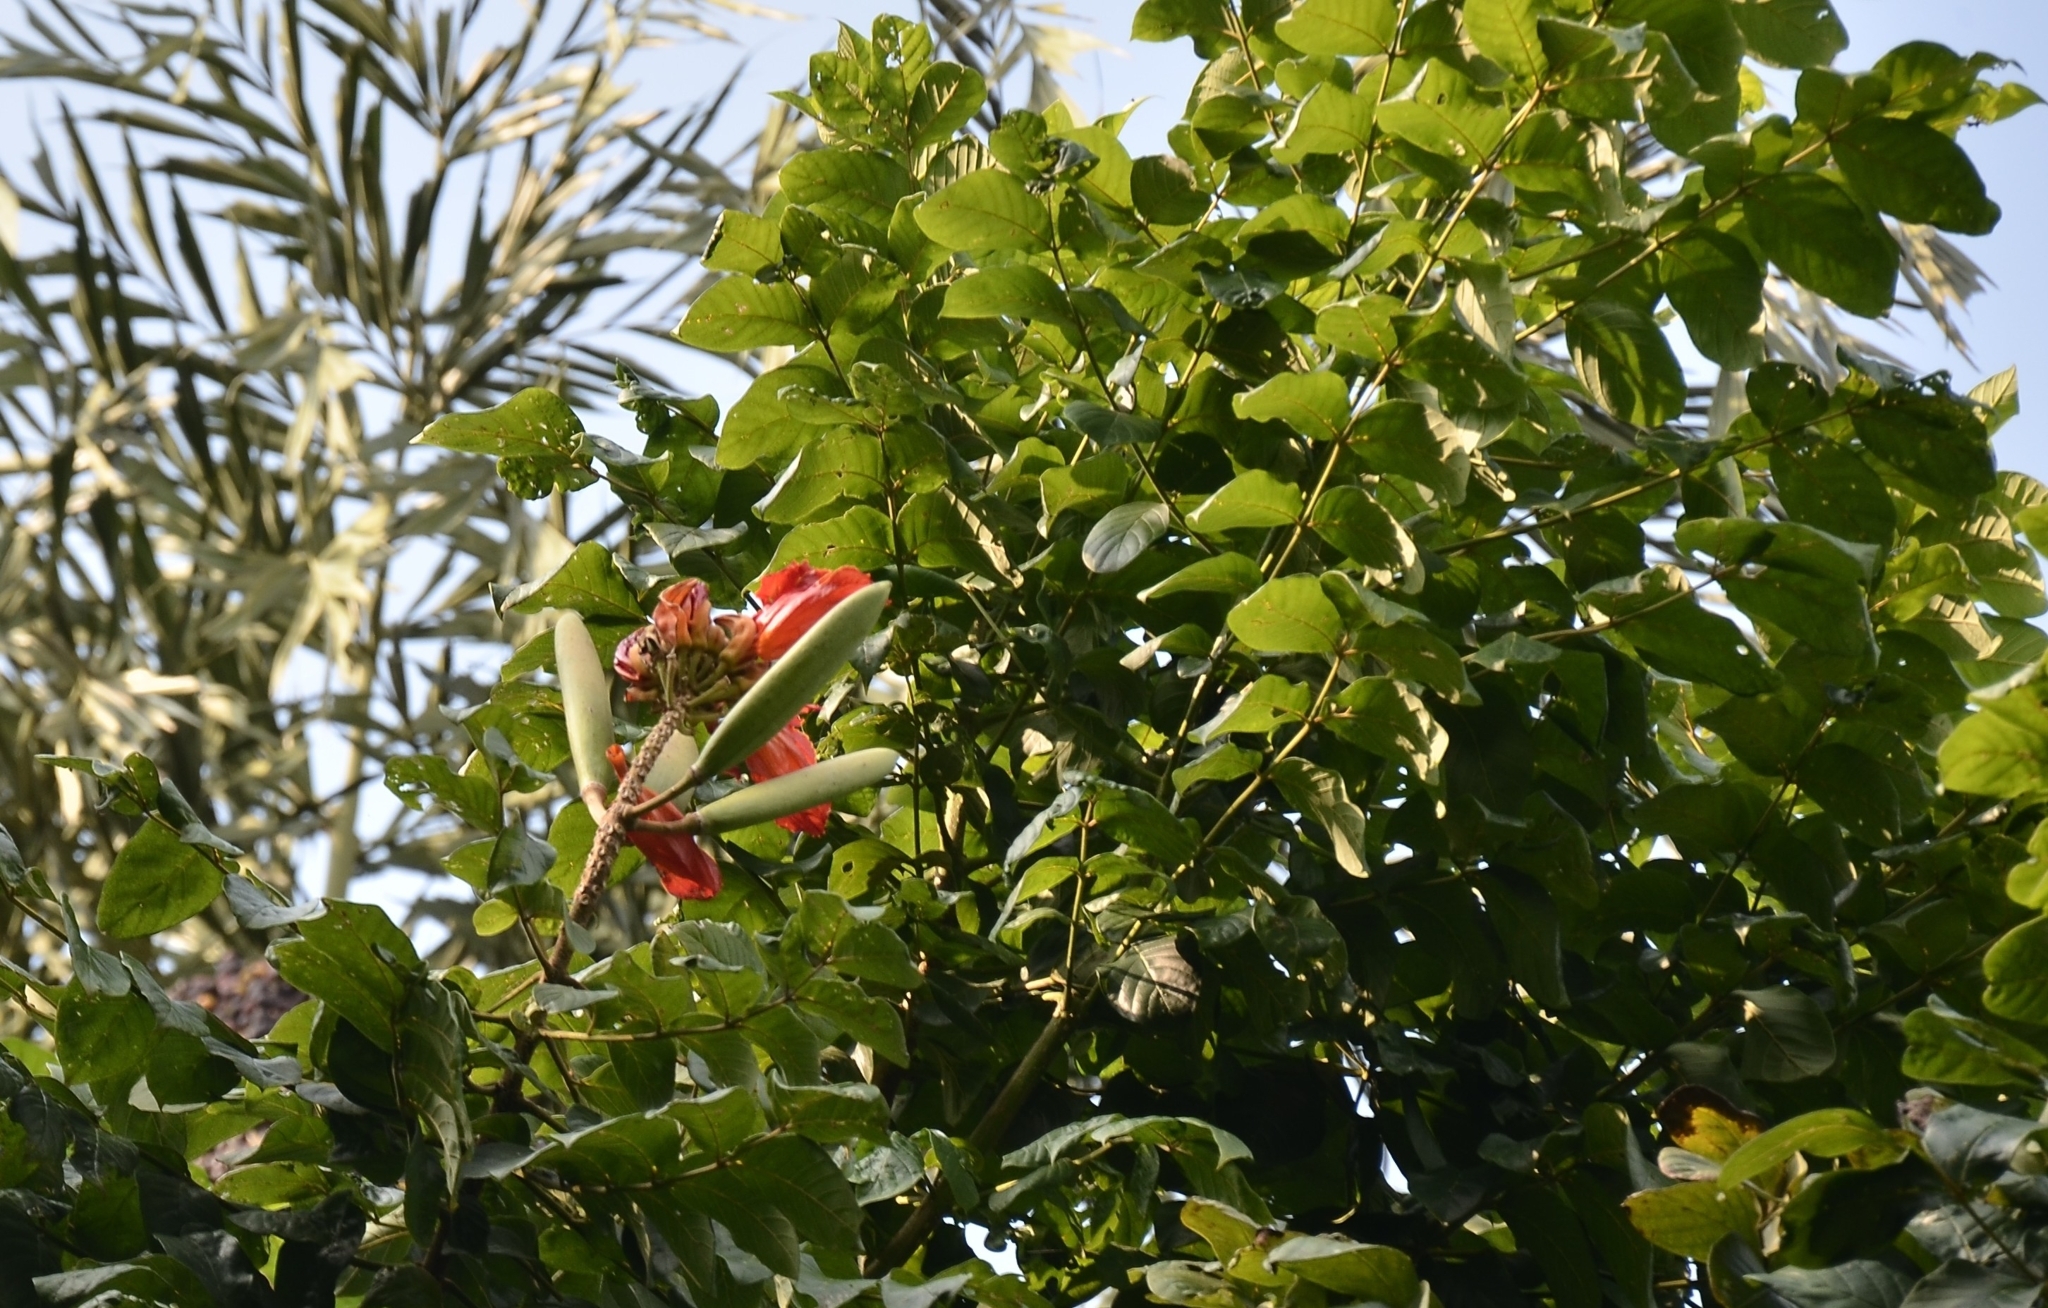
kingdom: Plantae
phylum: Tracheophyta
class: Magnoliopsida
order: Lamiales
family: Bignoniaceae
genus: Spathodea
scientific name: Spathodea campanulata
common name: African tuliptree
